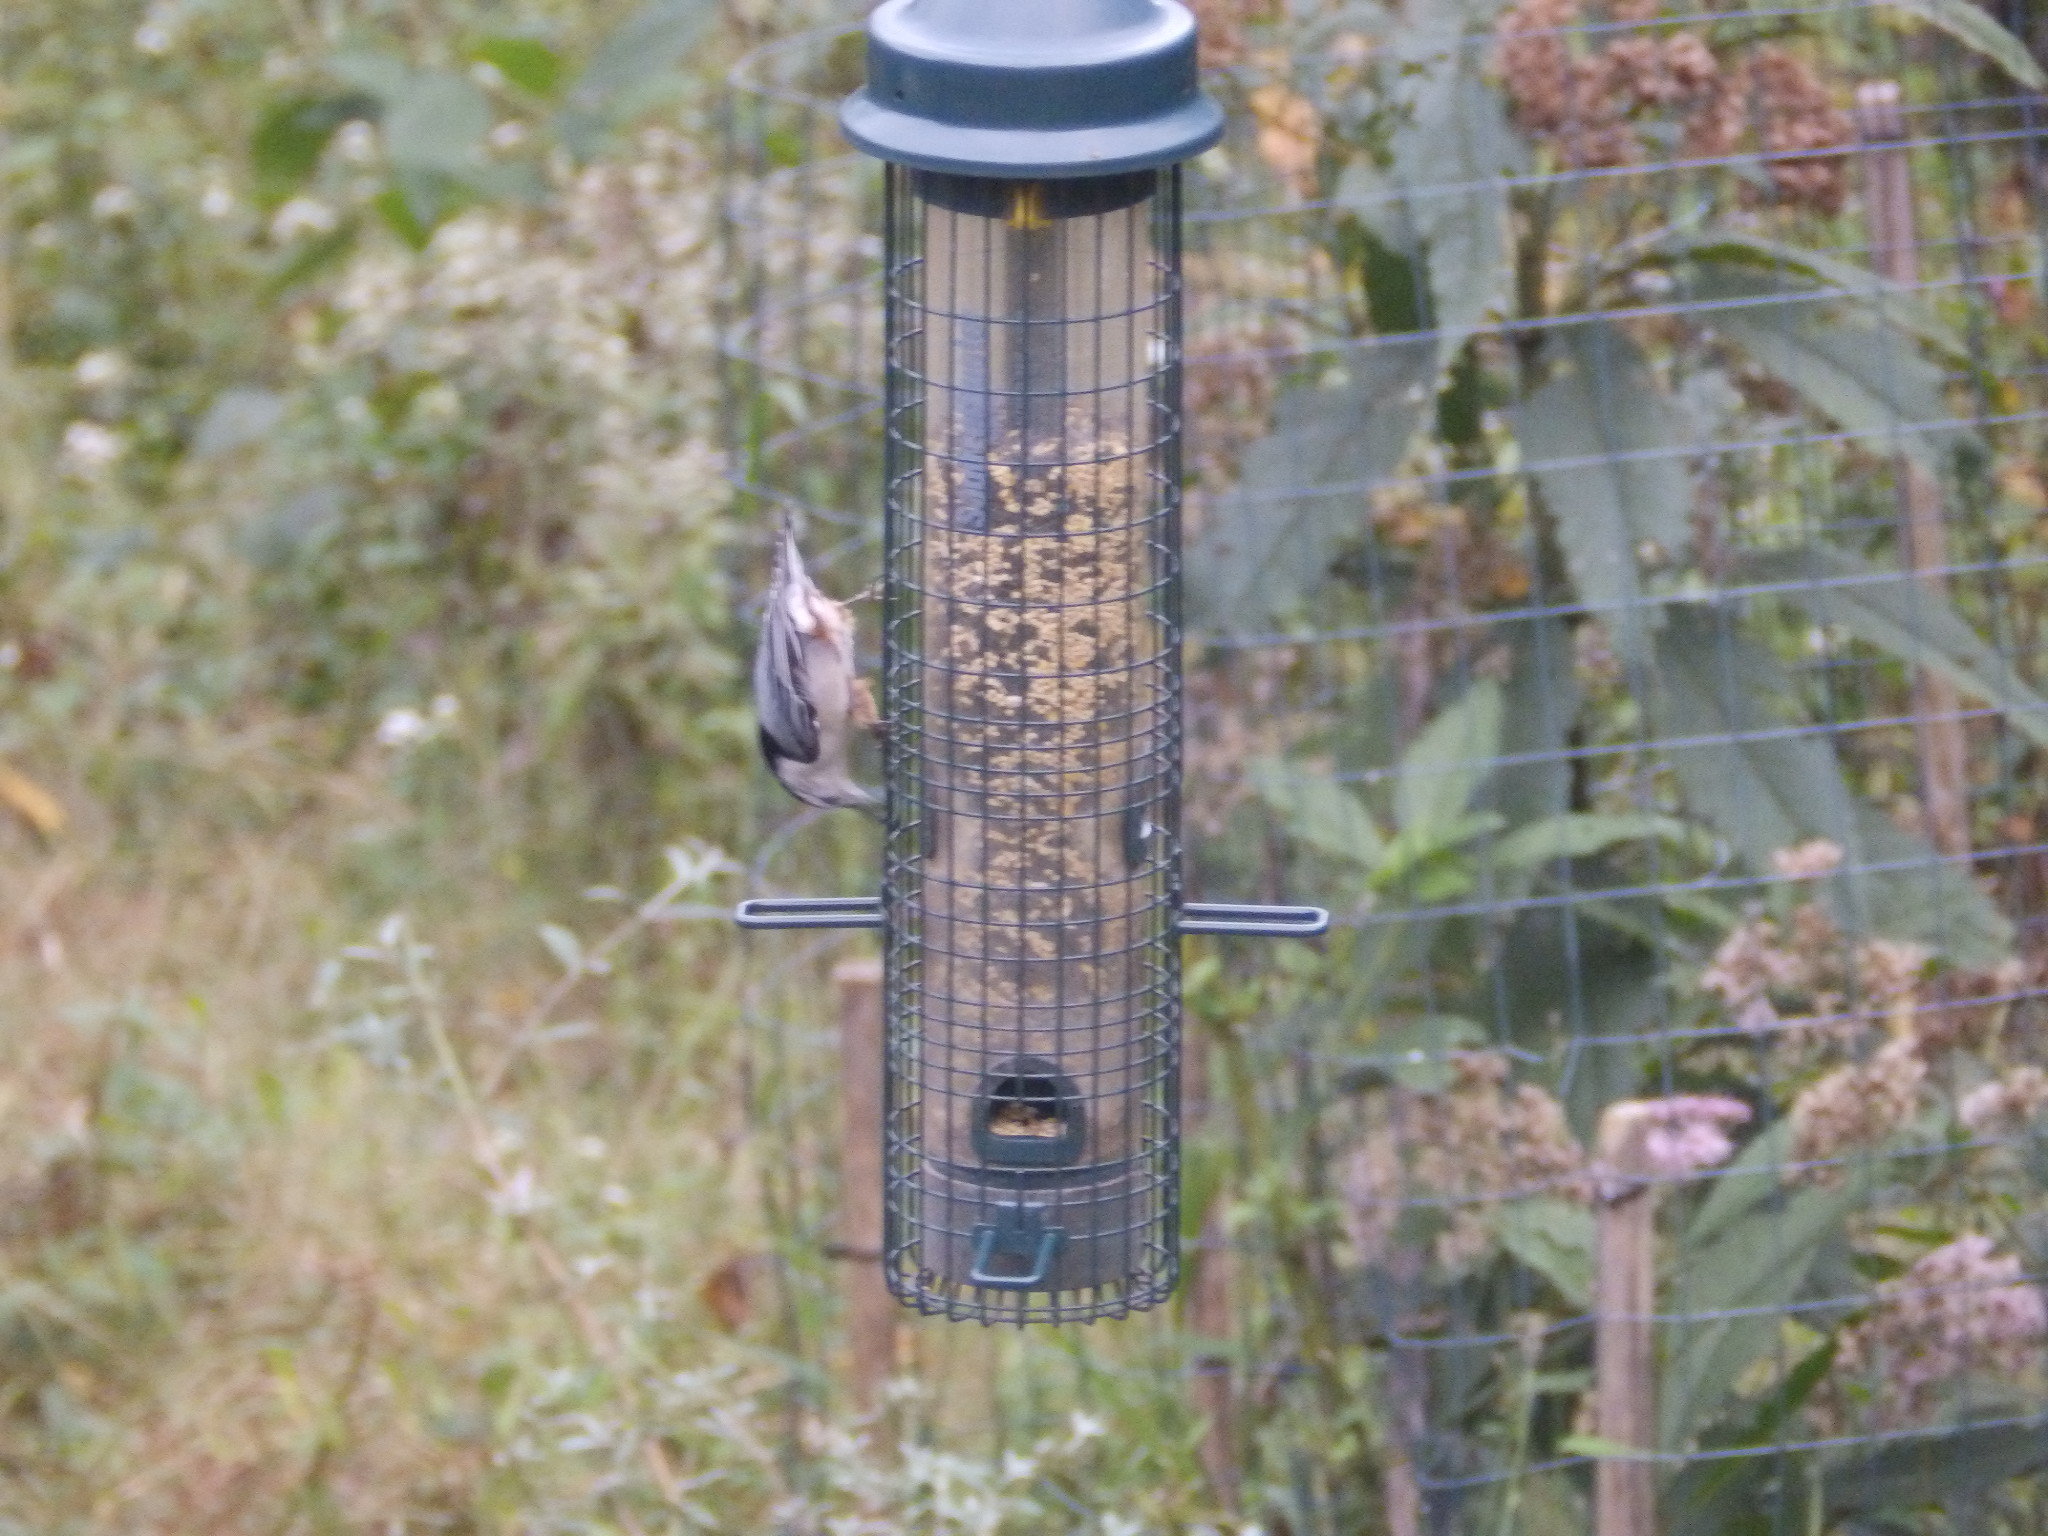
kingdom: Animalia
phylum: Chordata
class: Aves
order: Passeriformes
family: Sittidae
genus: Sitta
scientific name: Sitta carolinensis
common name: White-breasted nuthatch
